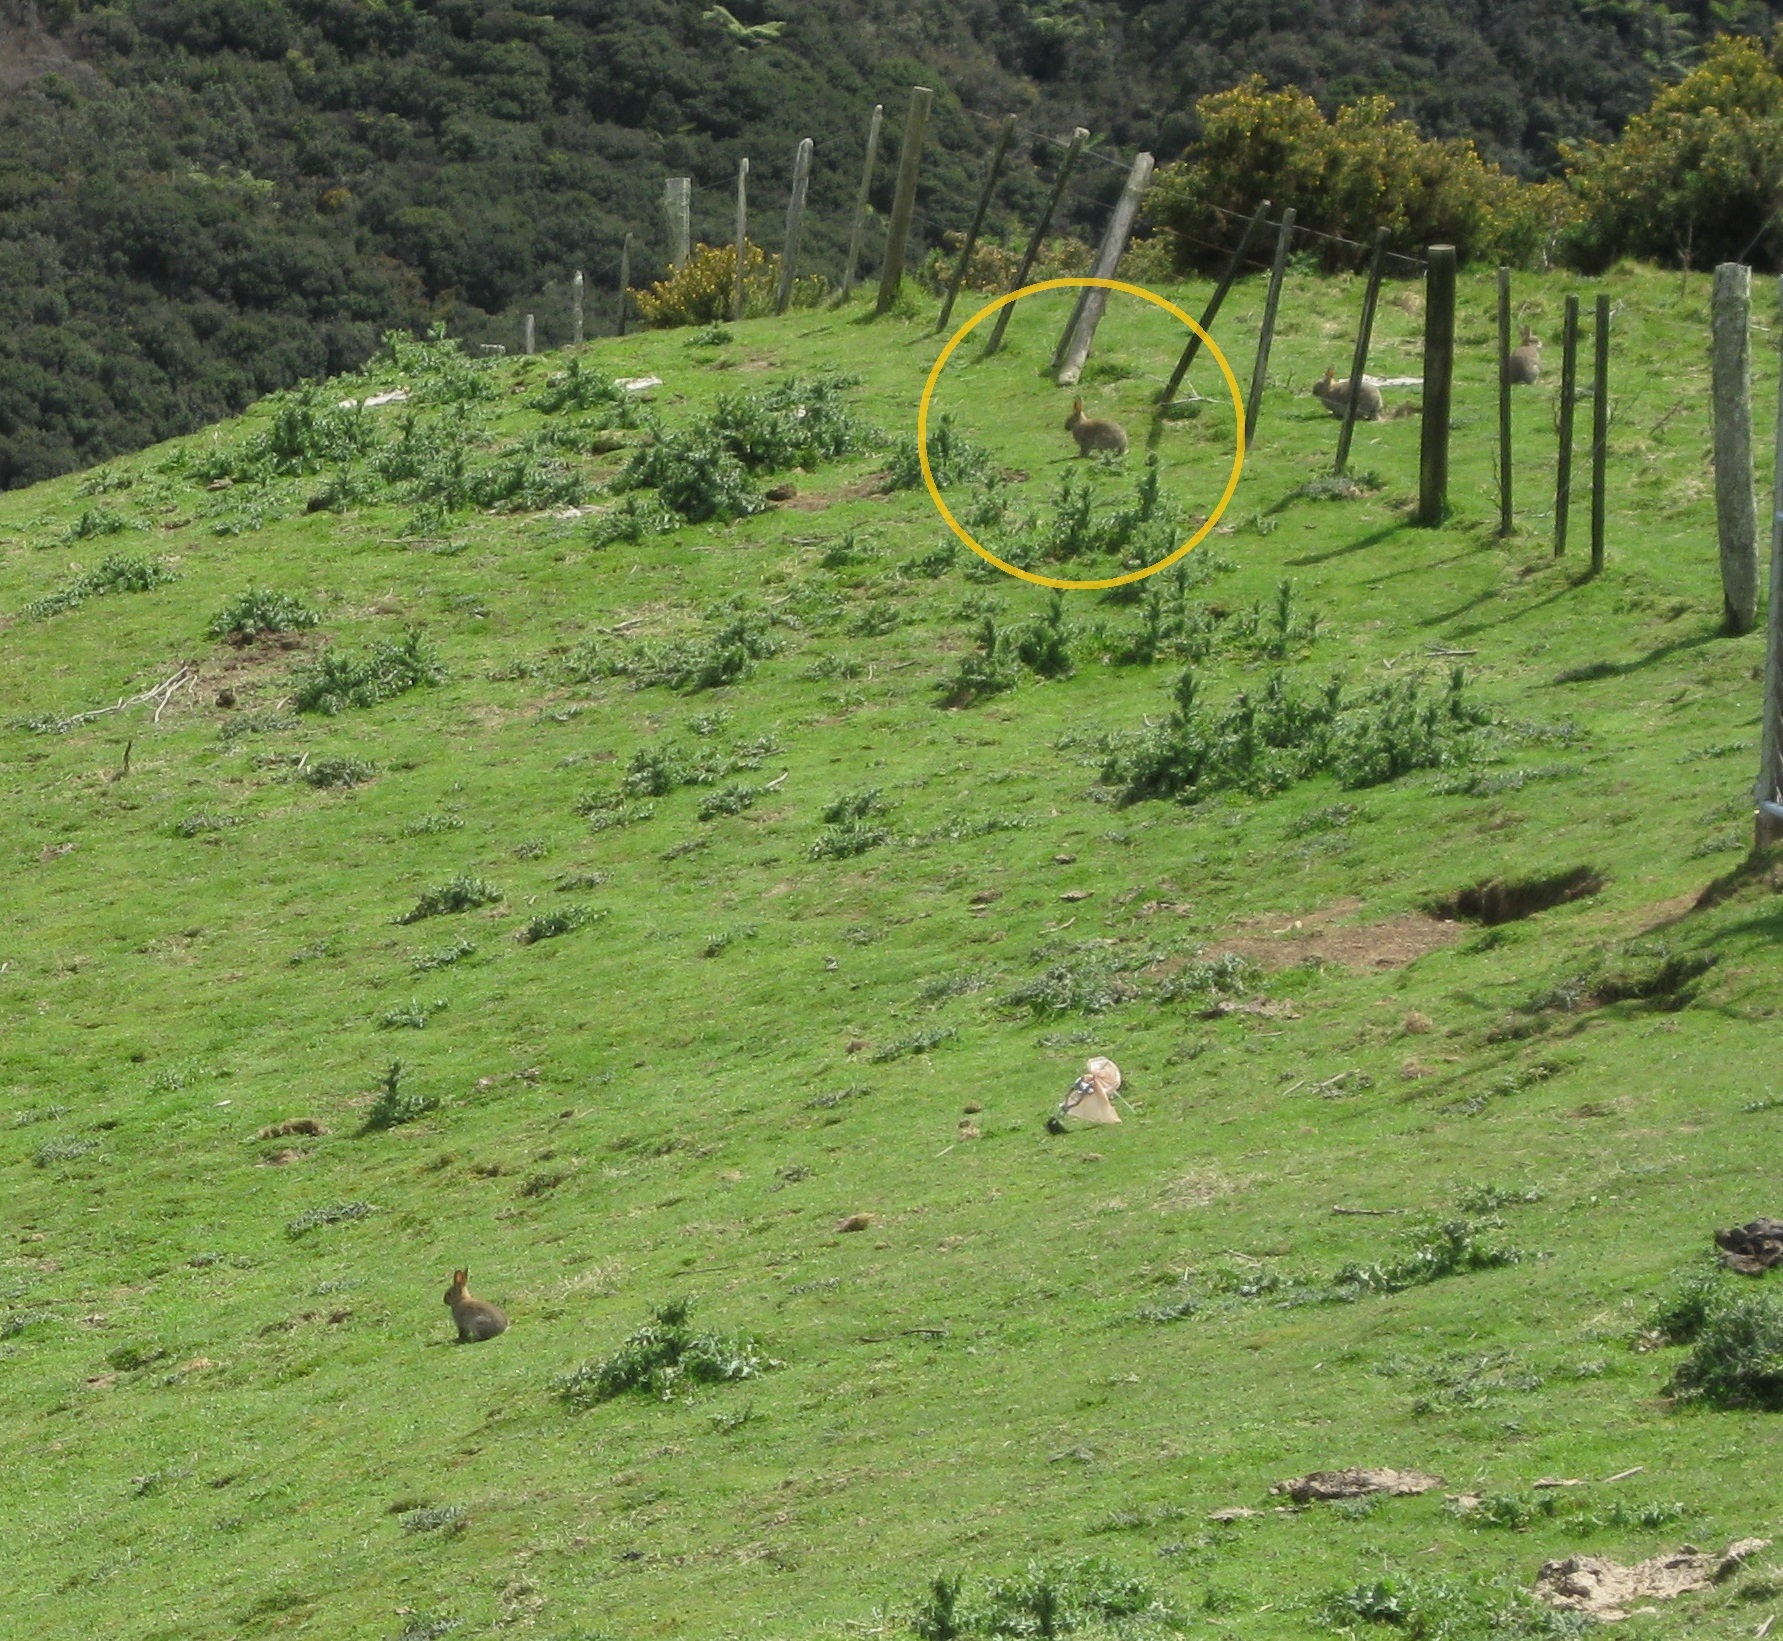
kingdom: Animalia
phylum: Chordata
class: Mammalia
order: Lagomorpha
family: Leporidae
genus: Oryctolagus
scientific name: Oryctolagus cuniculus
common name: European rabbit
